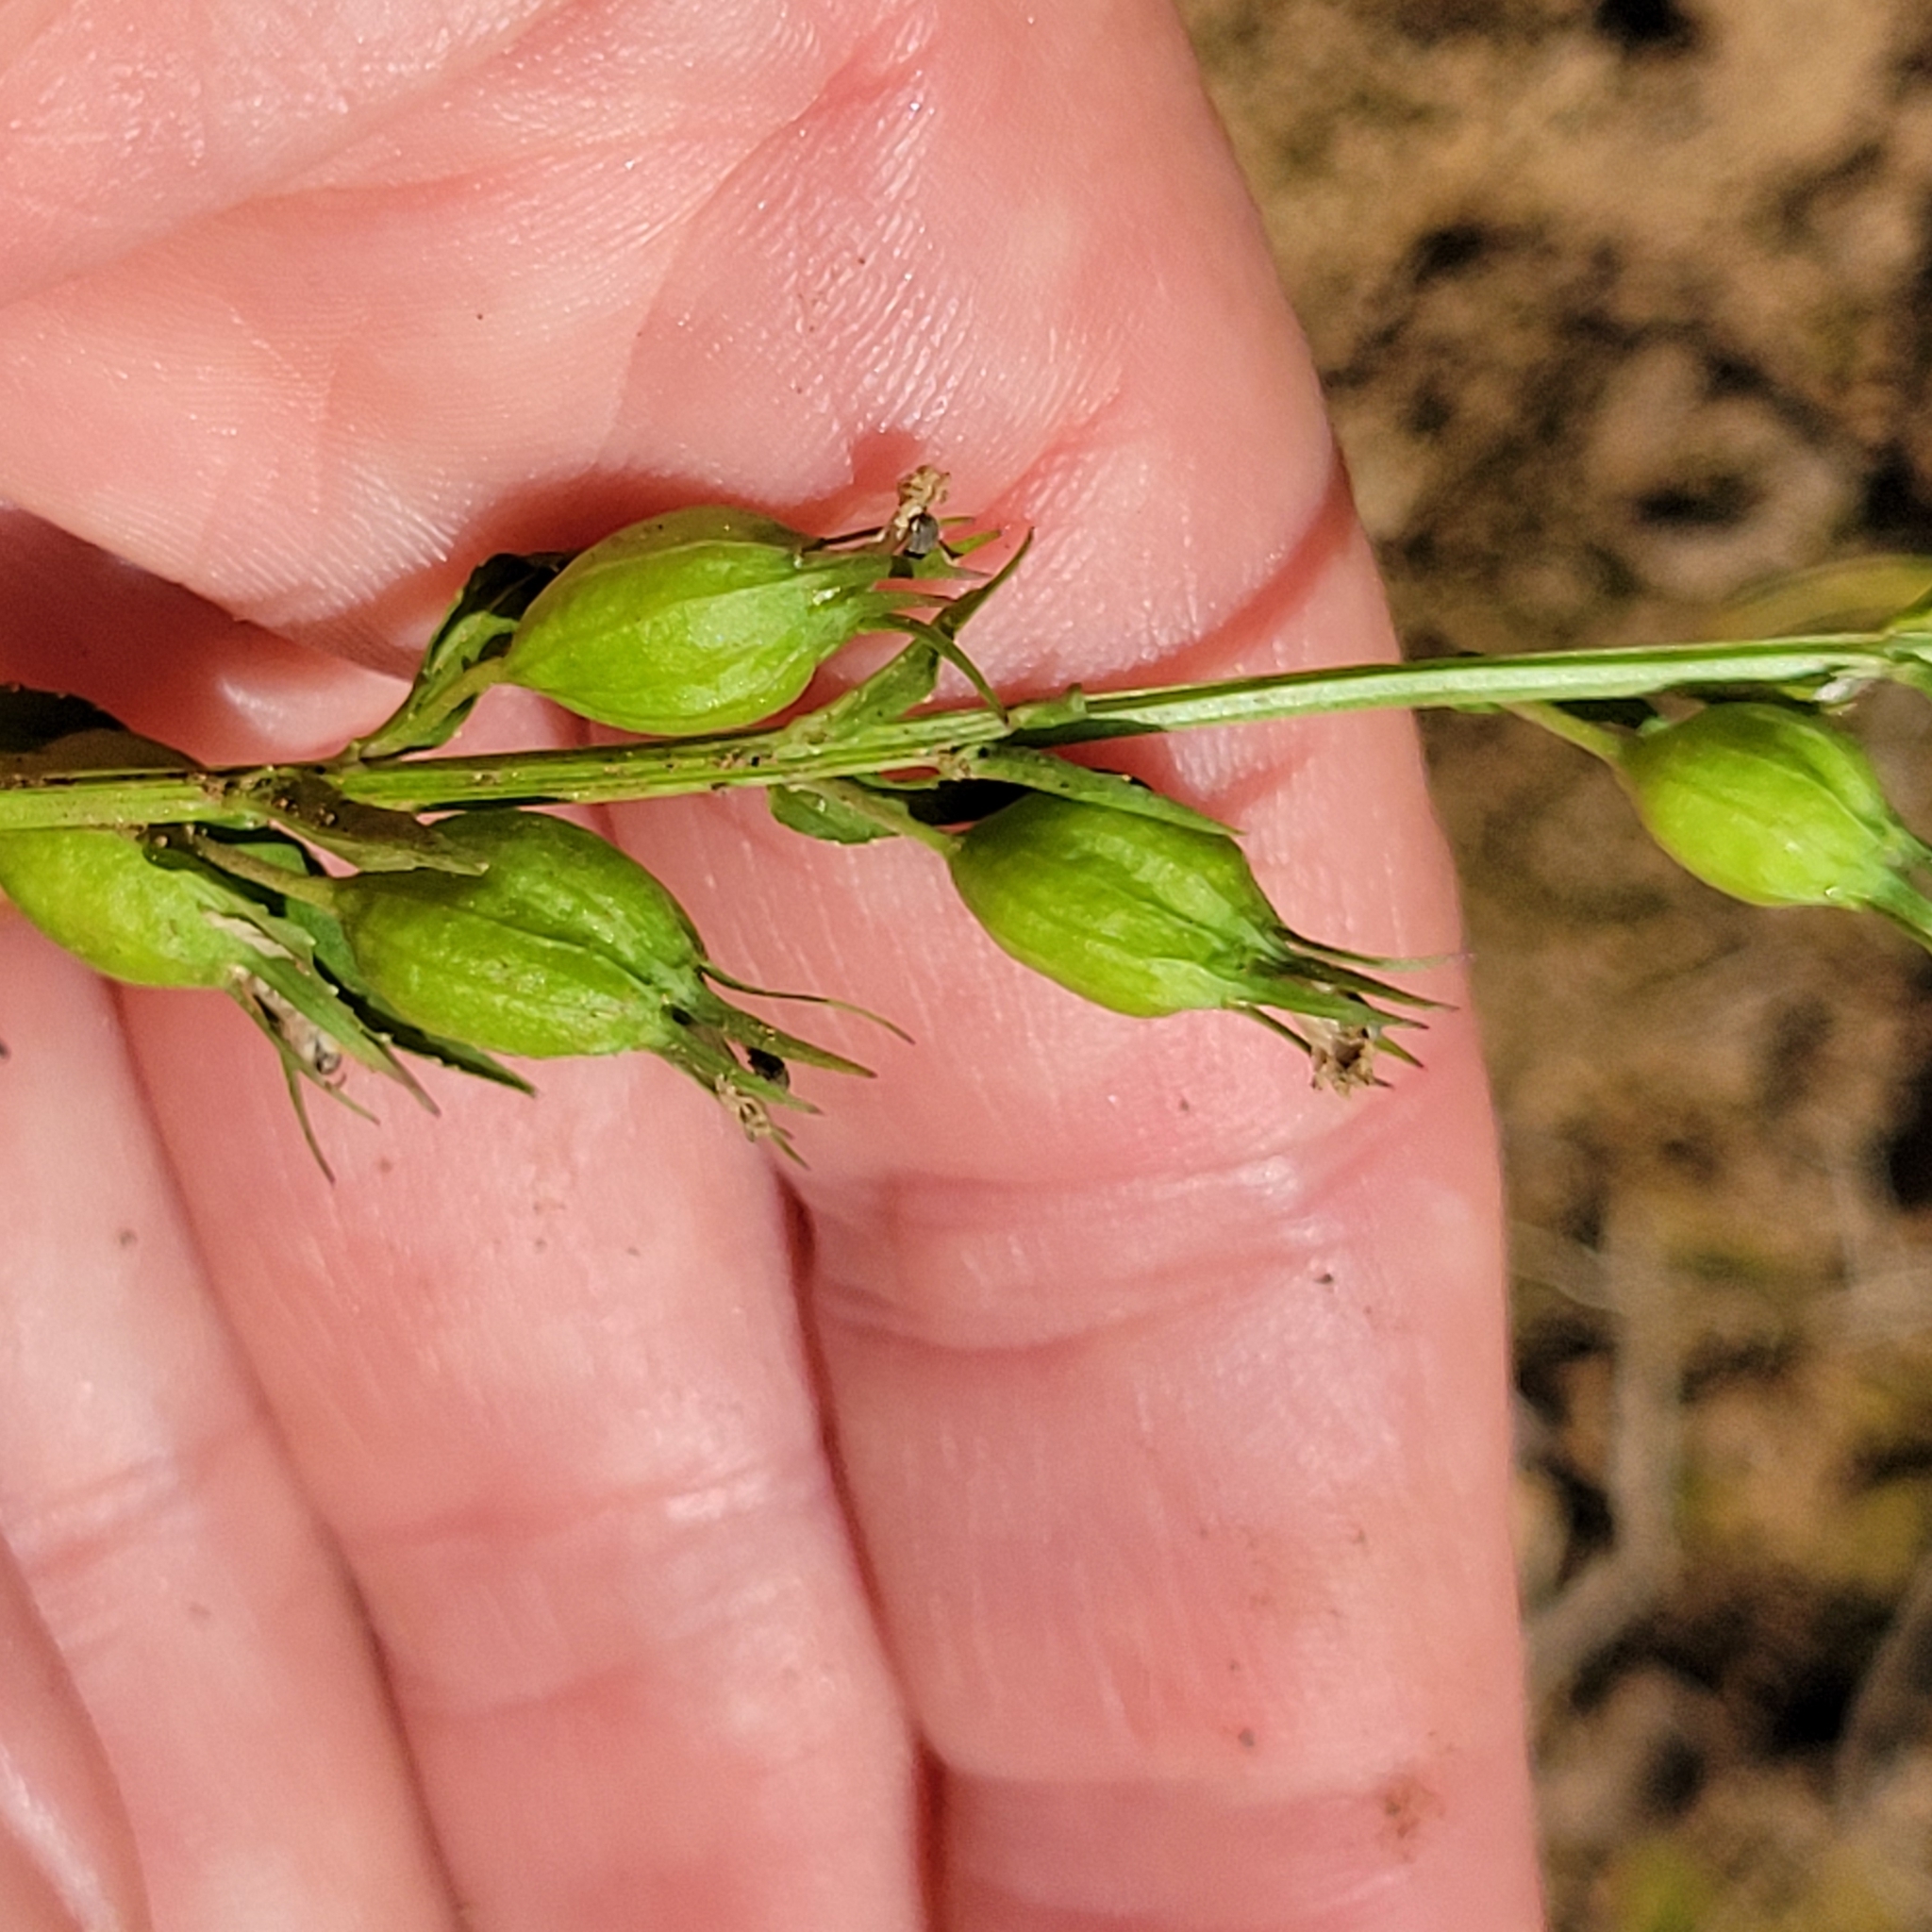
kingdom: Plantae
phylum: Tracheophyta
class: Magnoliopsida
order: Asterales
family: Campanulaceae
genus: Lobelia
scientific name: Lobelia inflata
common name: Indian tobacco
